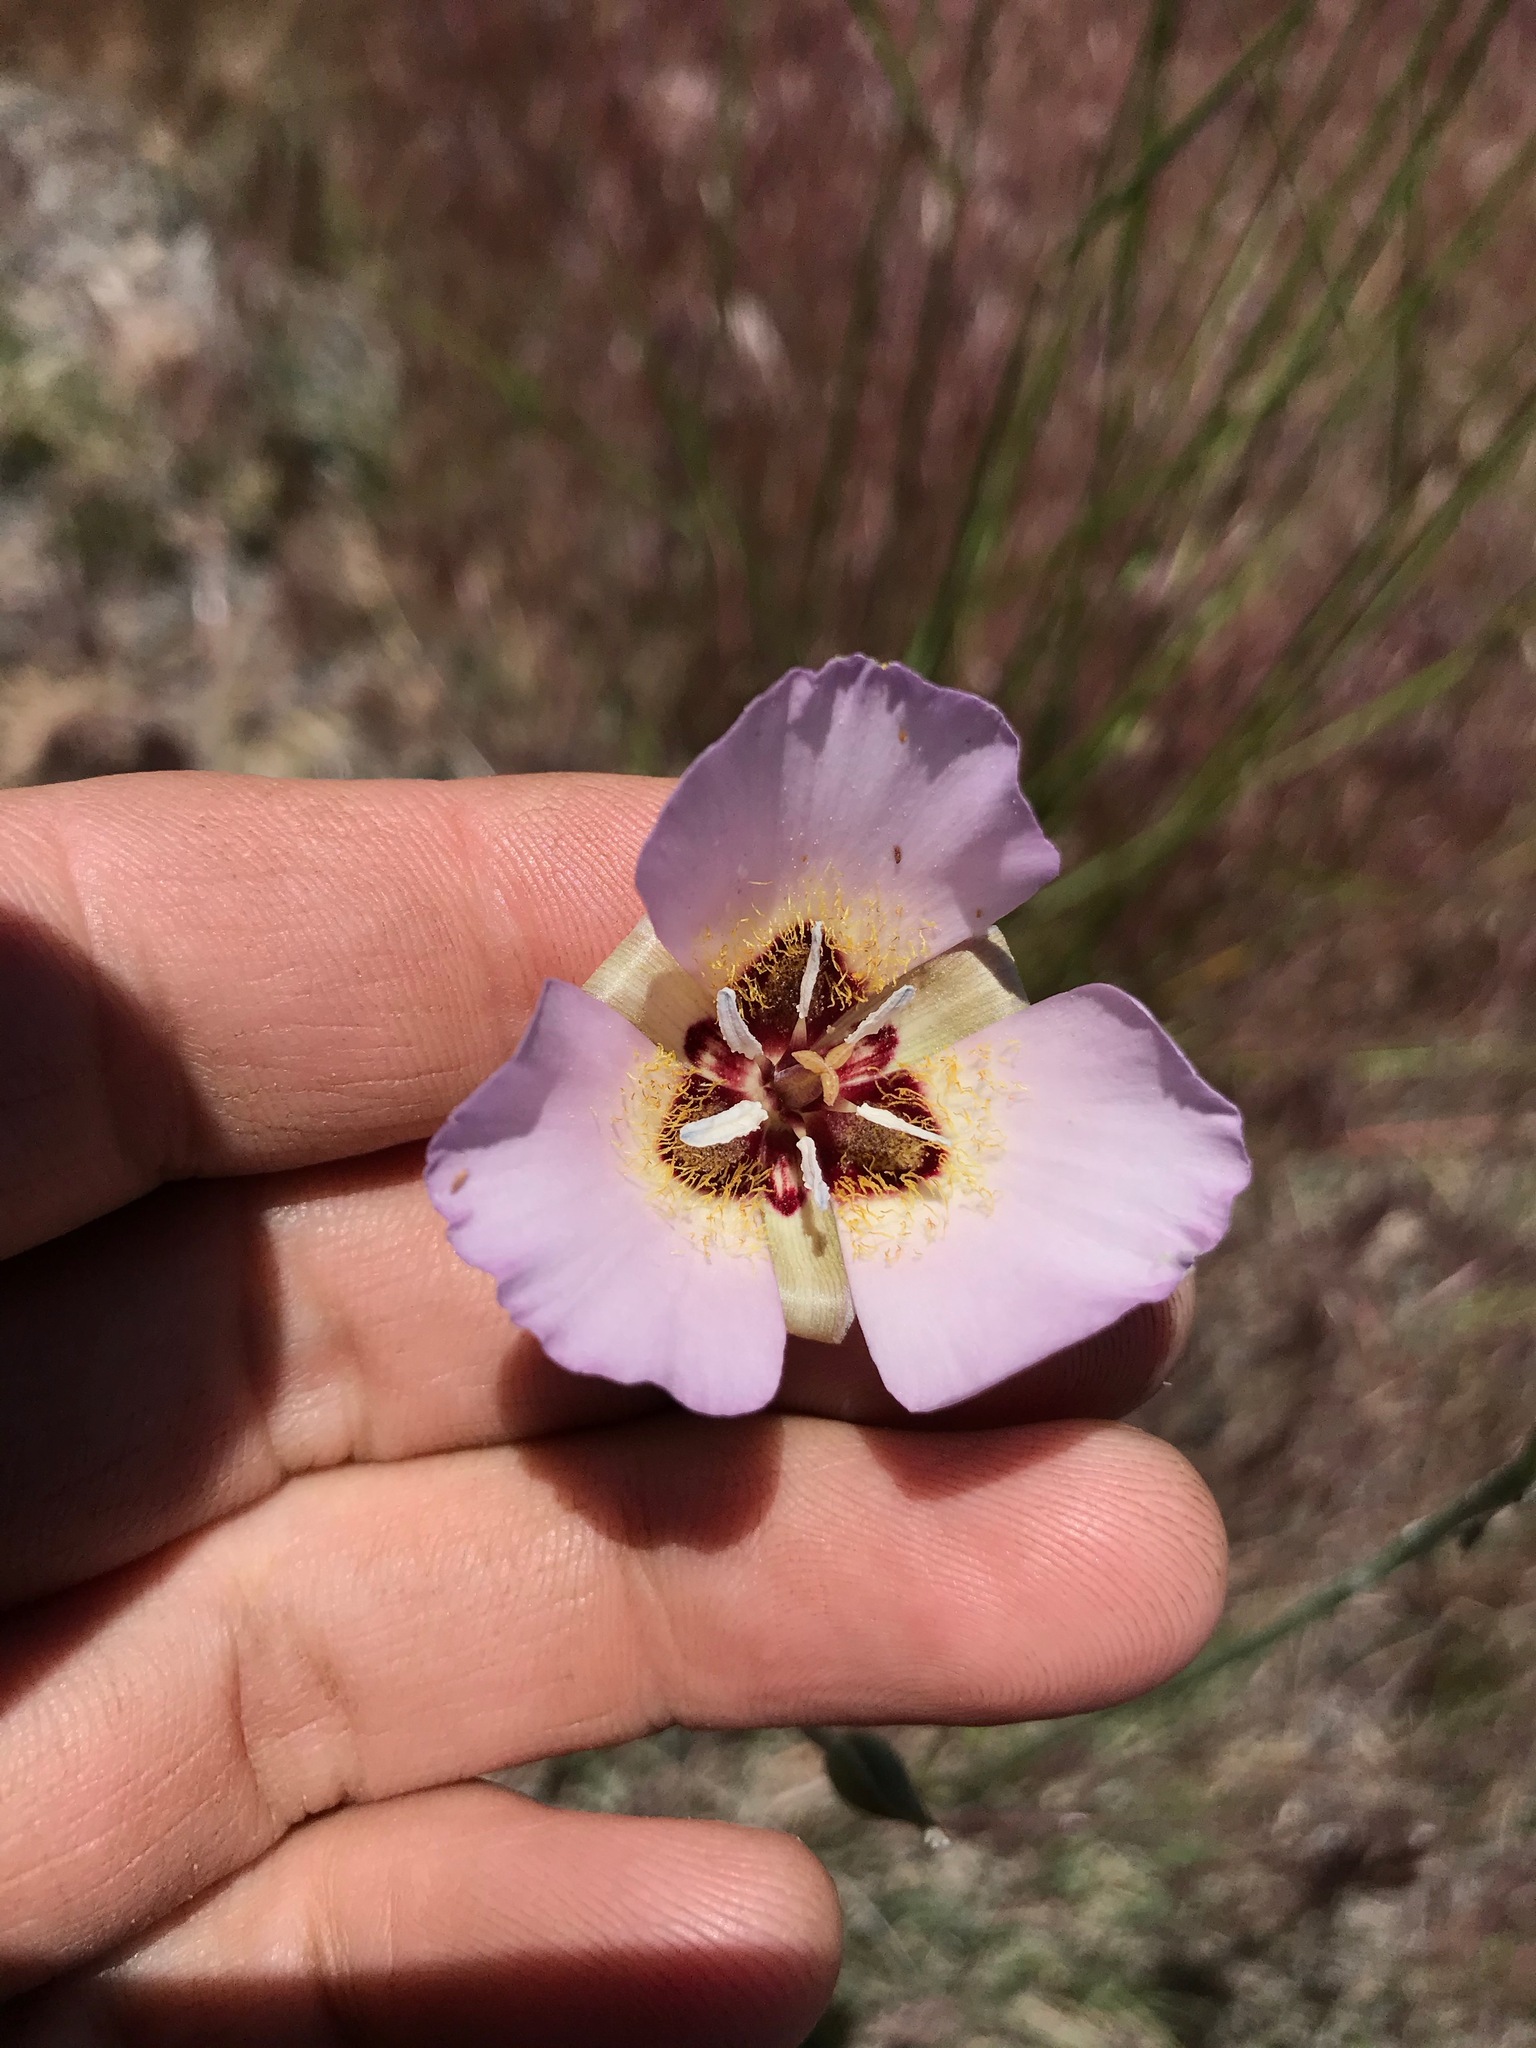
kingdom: Plantae
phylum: Tracheophyta
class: Liliopsida
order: Liliales
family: Liliaceae
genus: Calochortus
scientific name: Calochortus palmeri
